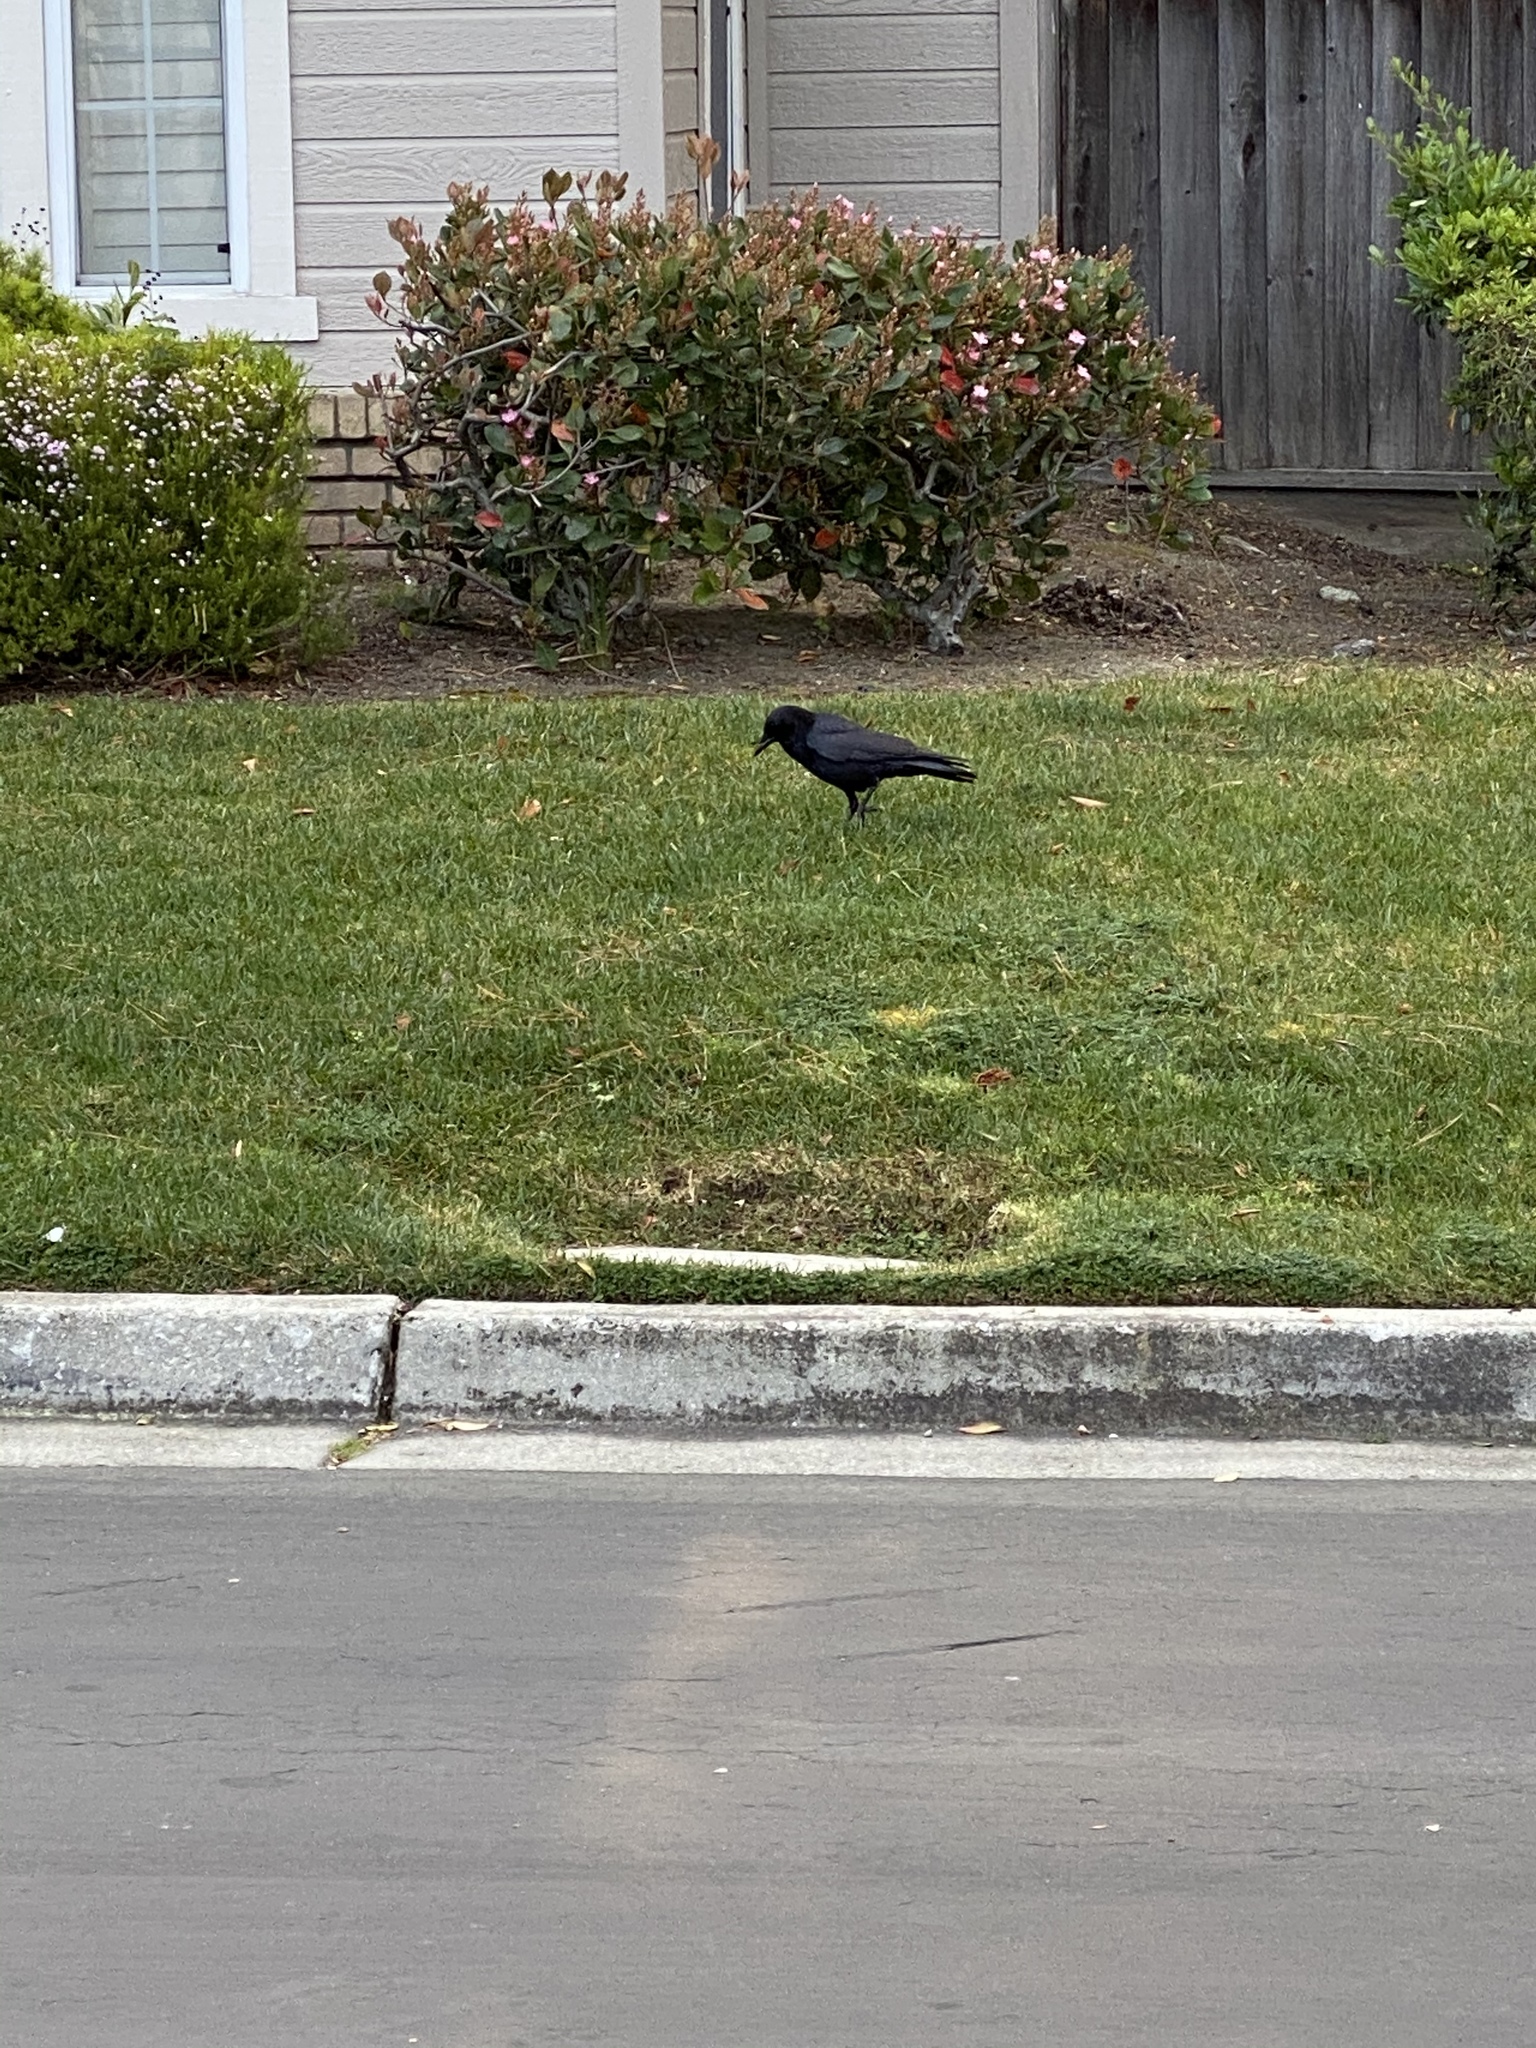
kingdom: Animalia
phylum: Chordata
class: Aves
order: Passeriformes
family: Corvidae
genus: Corvus
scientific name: Corvus brachyrhynchos
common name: American crow
